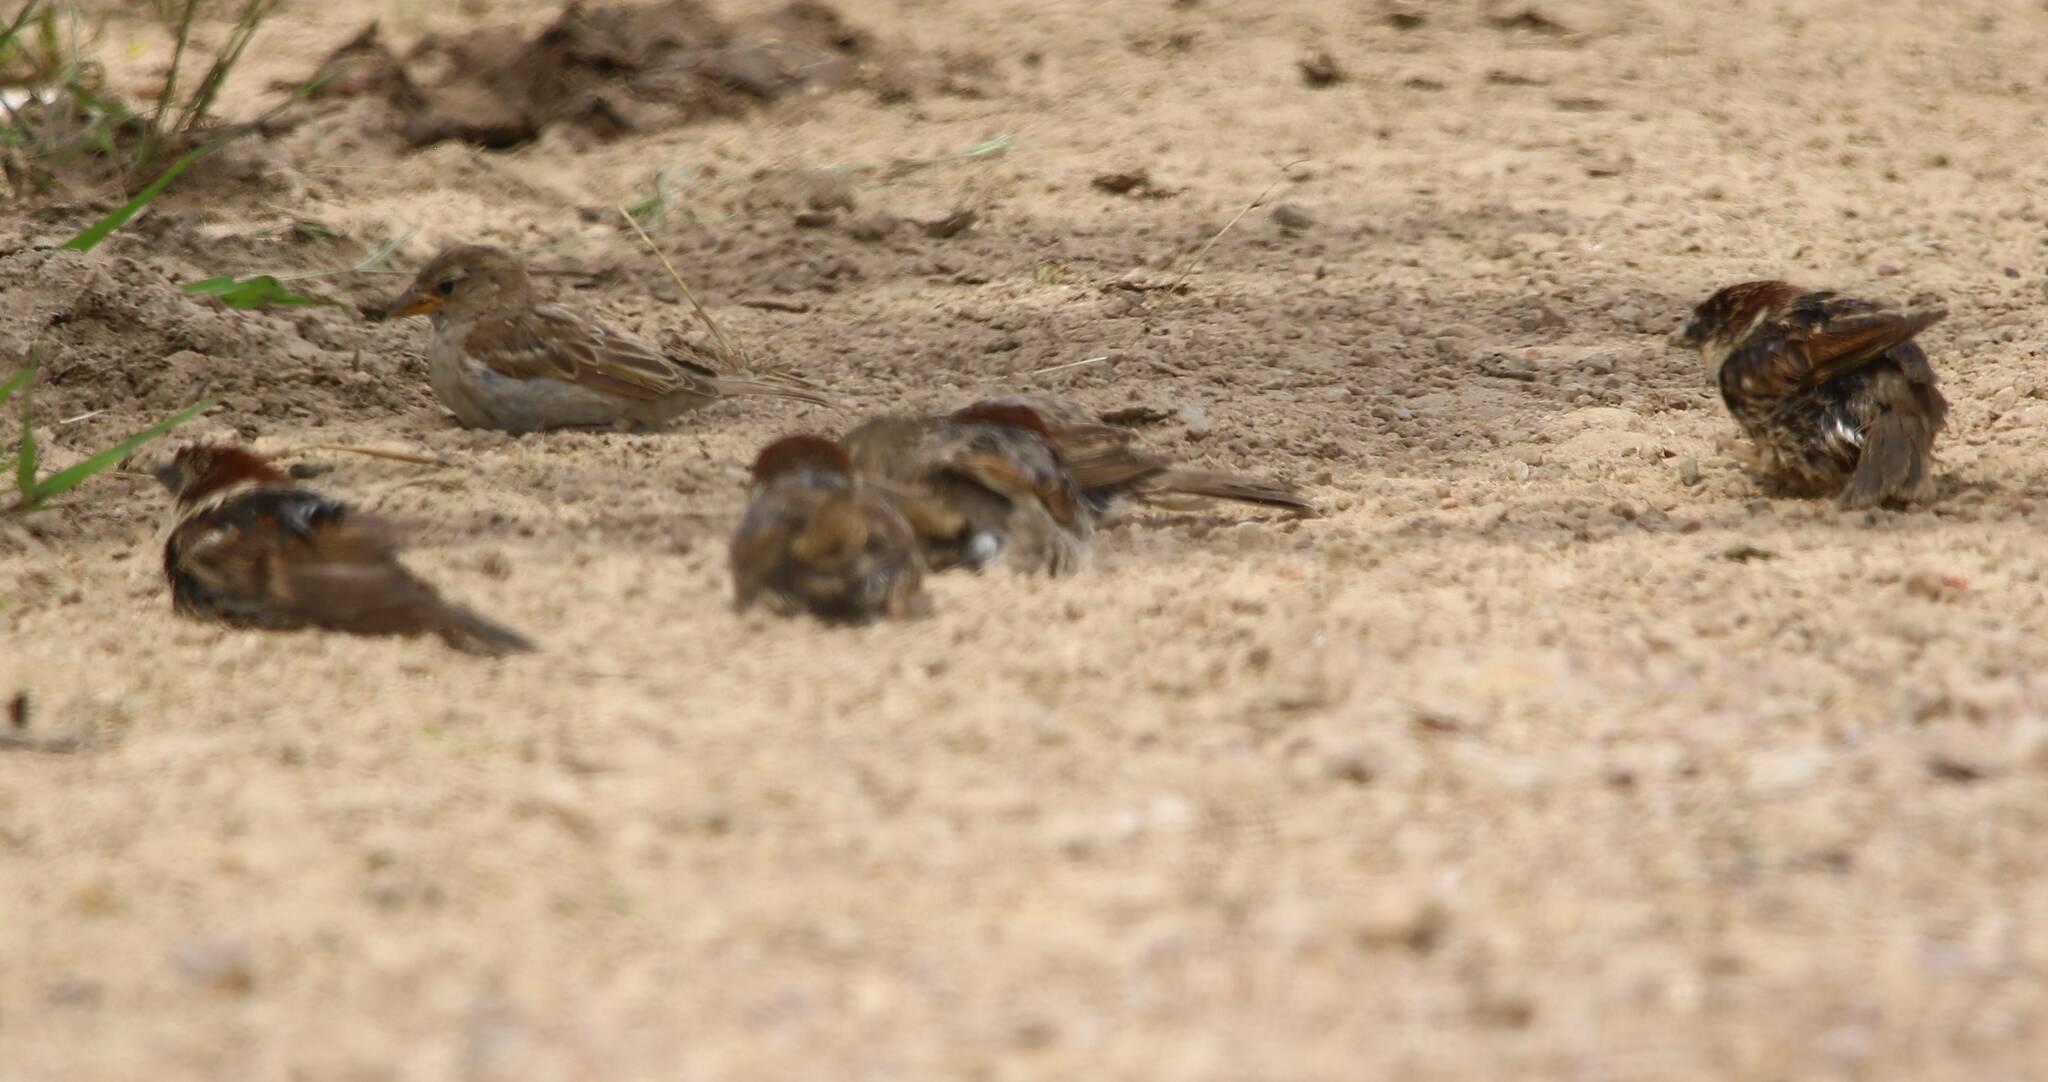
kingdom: Animalia
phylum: Chordata
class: Aves
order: Passeriformes
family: Passeridae
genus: Passer
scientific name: Passer hispaniolensis
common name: Spanish sparrow
